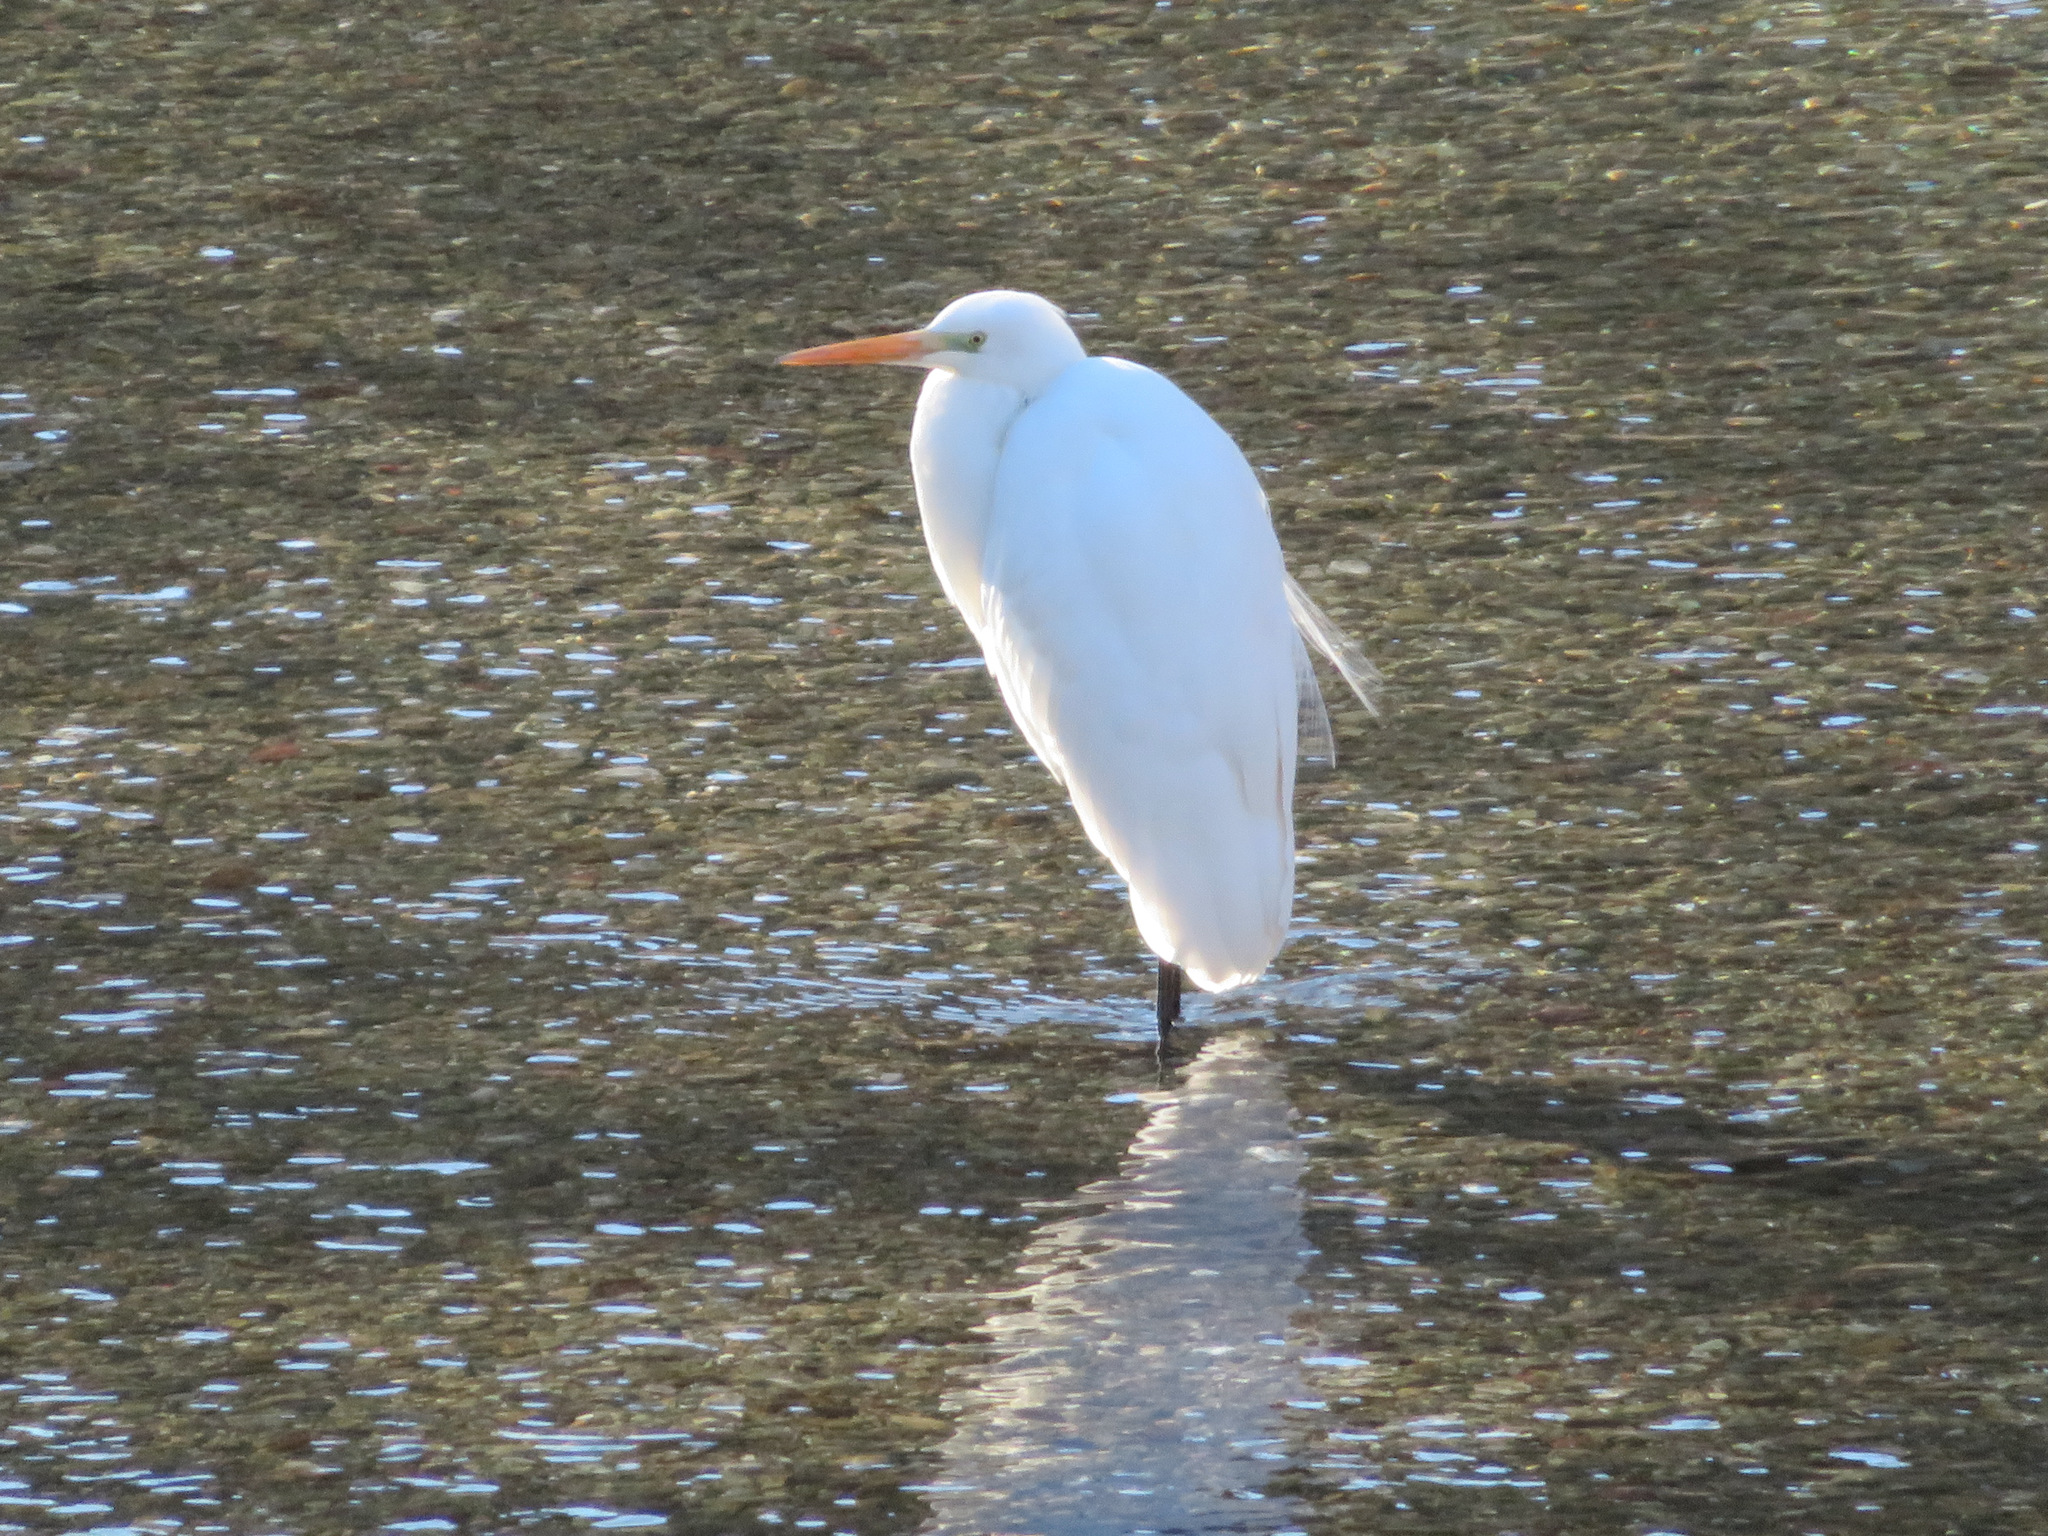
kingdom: Animalia
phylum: Chordata
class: Aves
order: Pelecaniformes
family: Ardeidae
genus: Ardea
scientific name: Ardea alba
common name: Great egret
